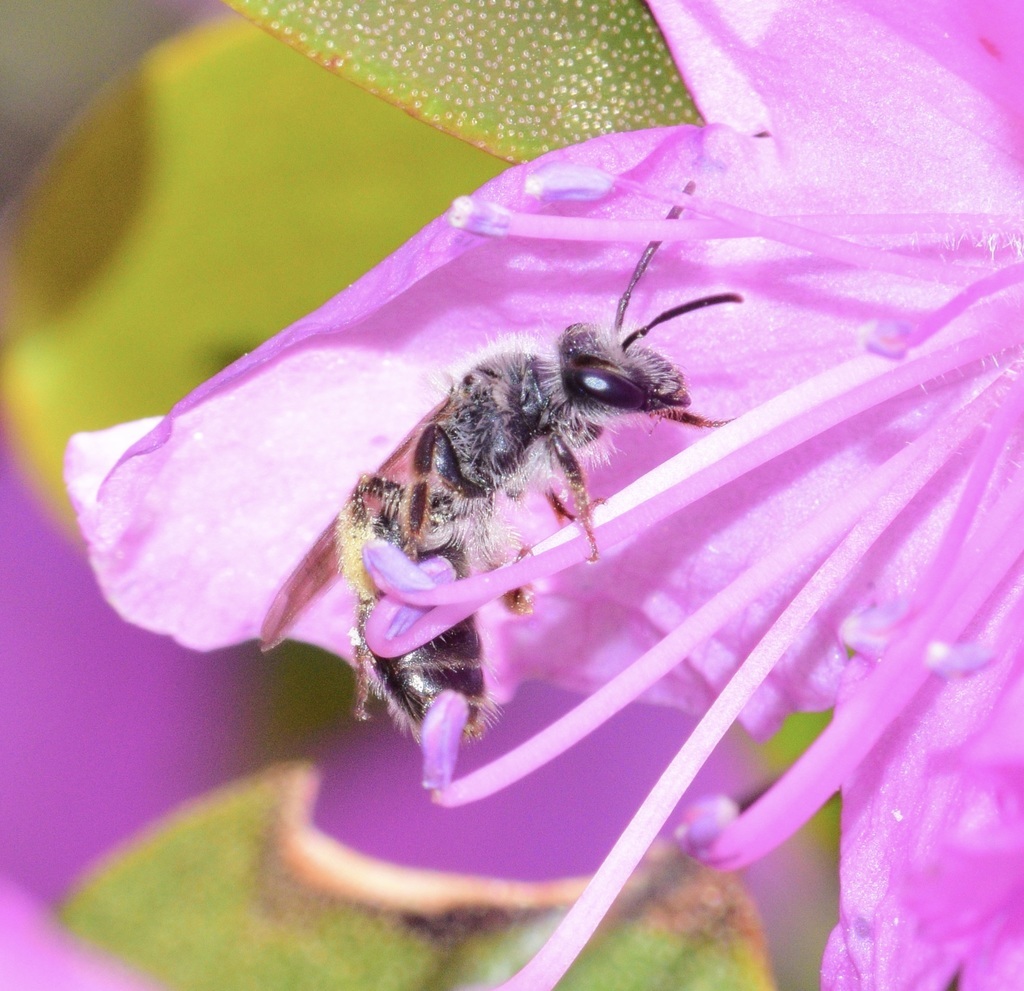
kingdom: Animalia
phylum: Arthropoda
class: Insecta
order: Hymenoptera
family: Andrenidae
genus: Andrena
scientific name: Andrena rufosignata
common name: Brown-fovea miner
